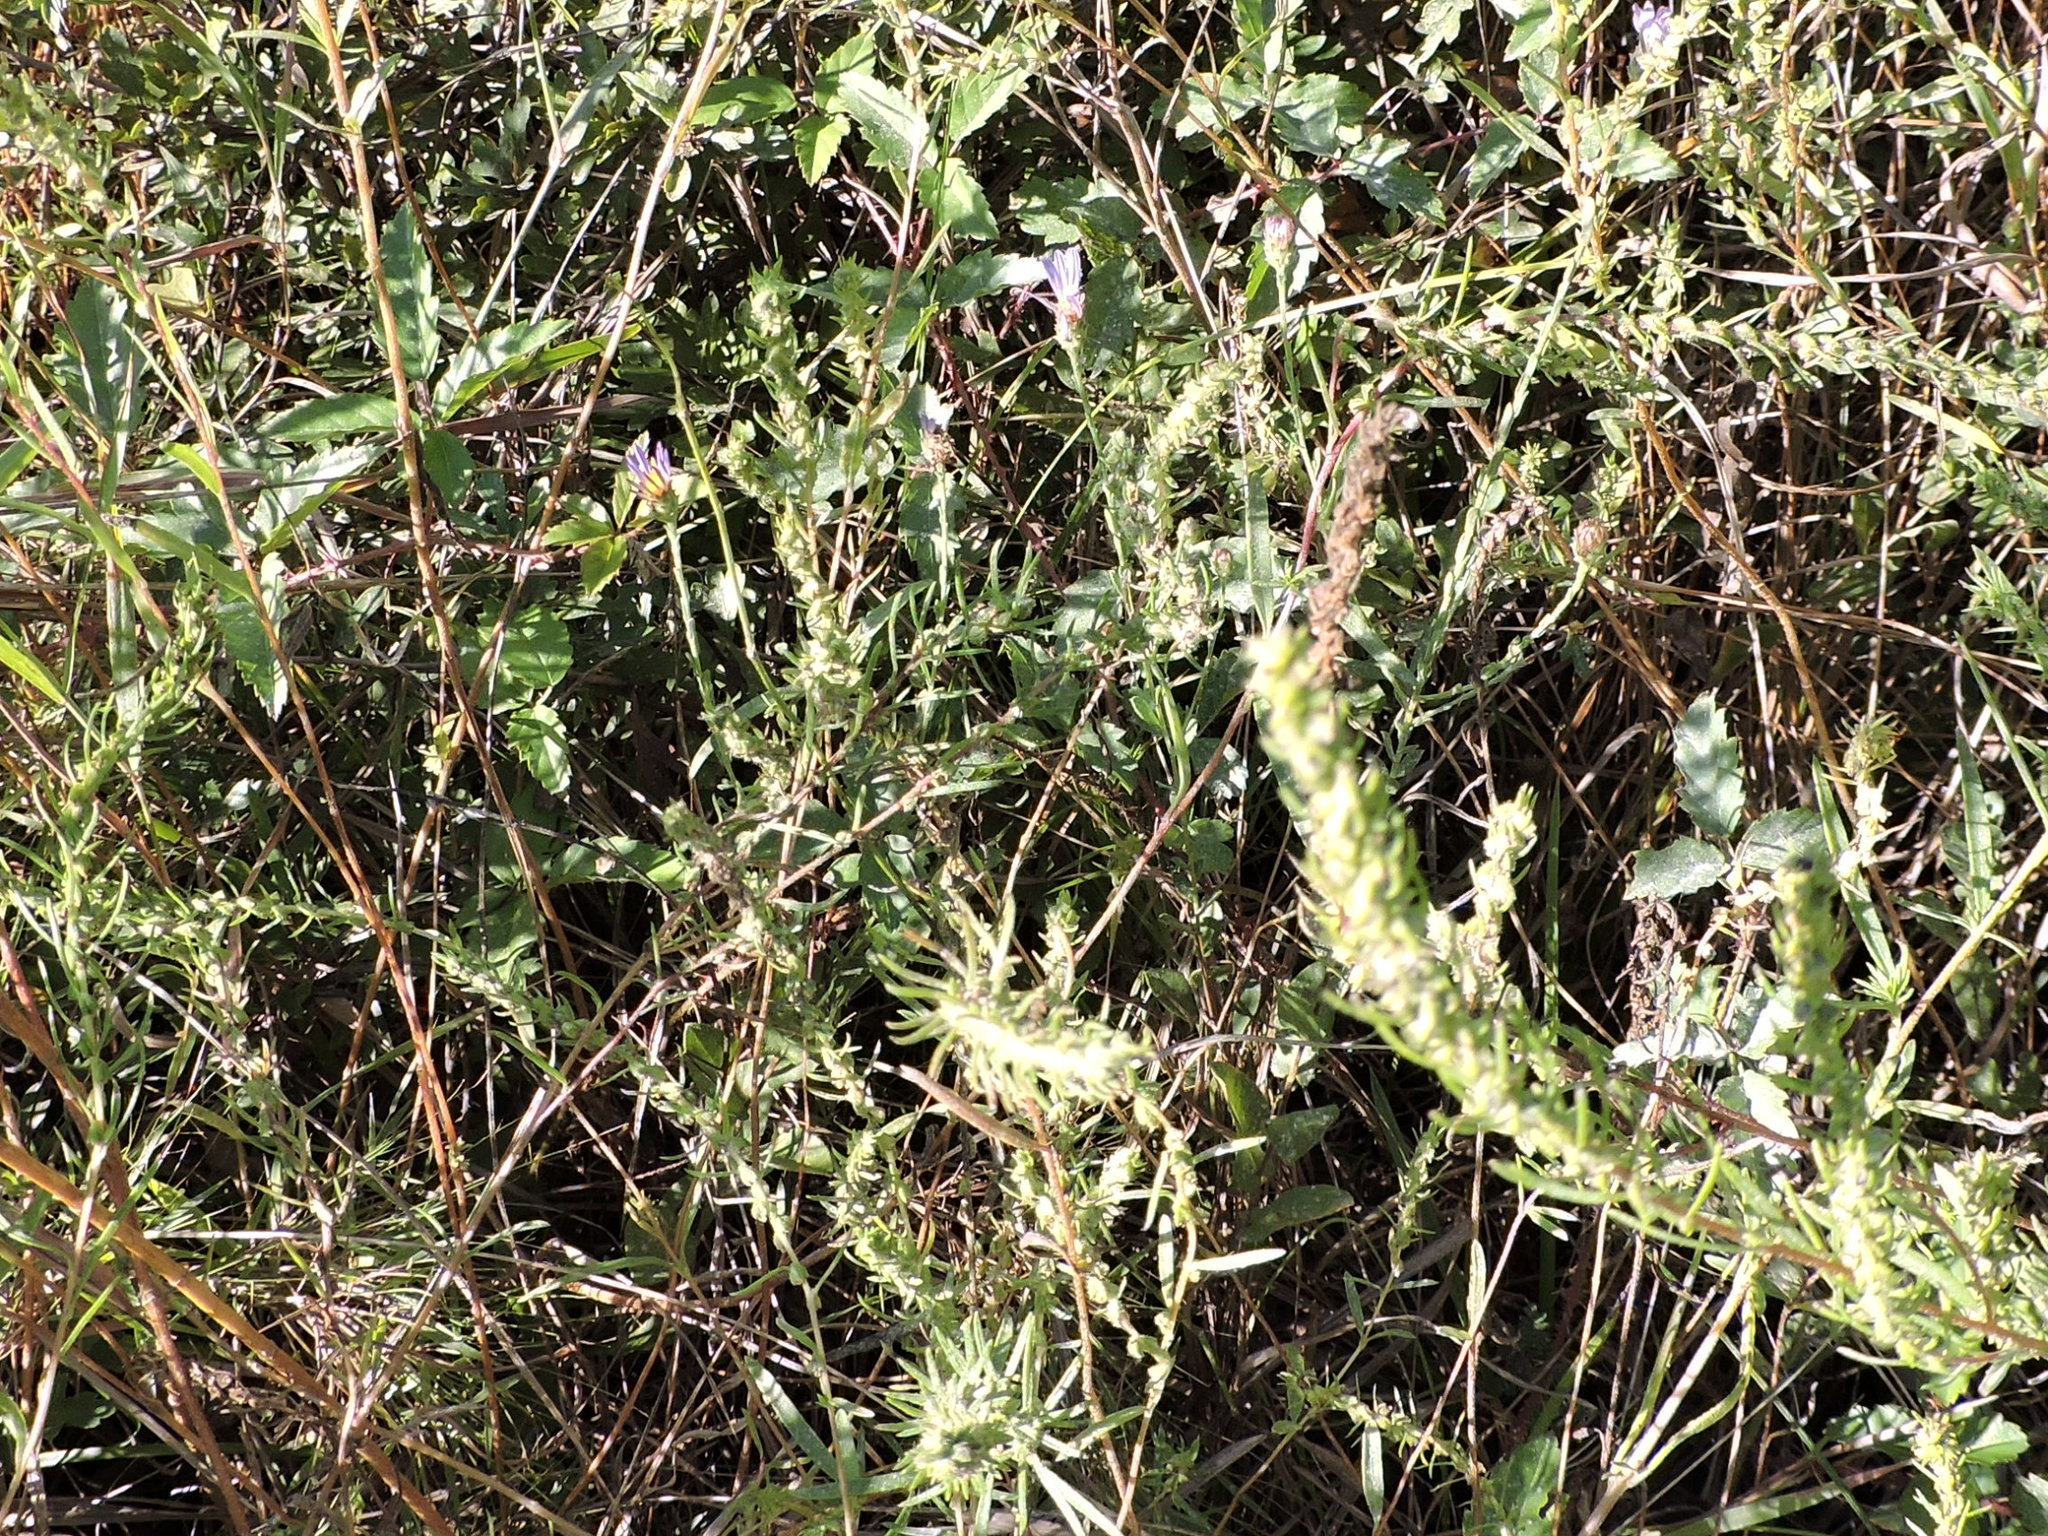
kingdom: Plantae
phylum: Tracheophyta
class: Magnoliopsida
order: Asterales
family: Asteraceae
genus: Symphyotrichum
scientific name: Symphyotrichum patens
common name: Late purple aster
